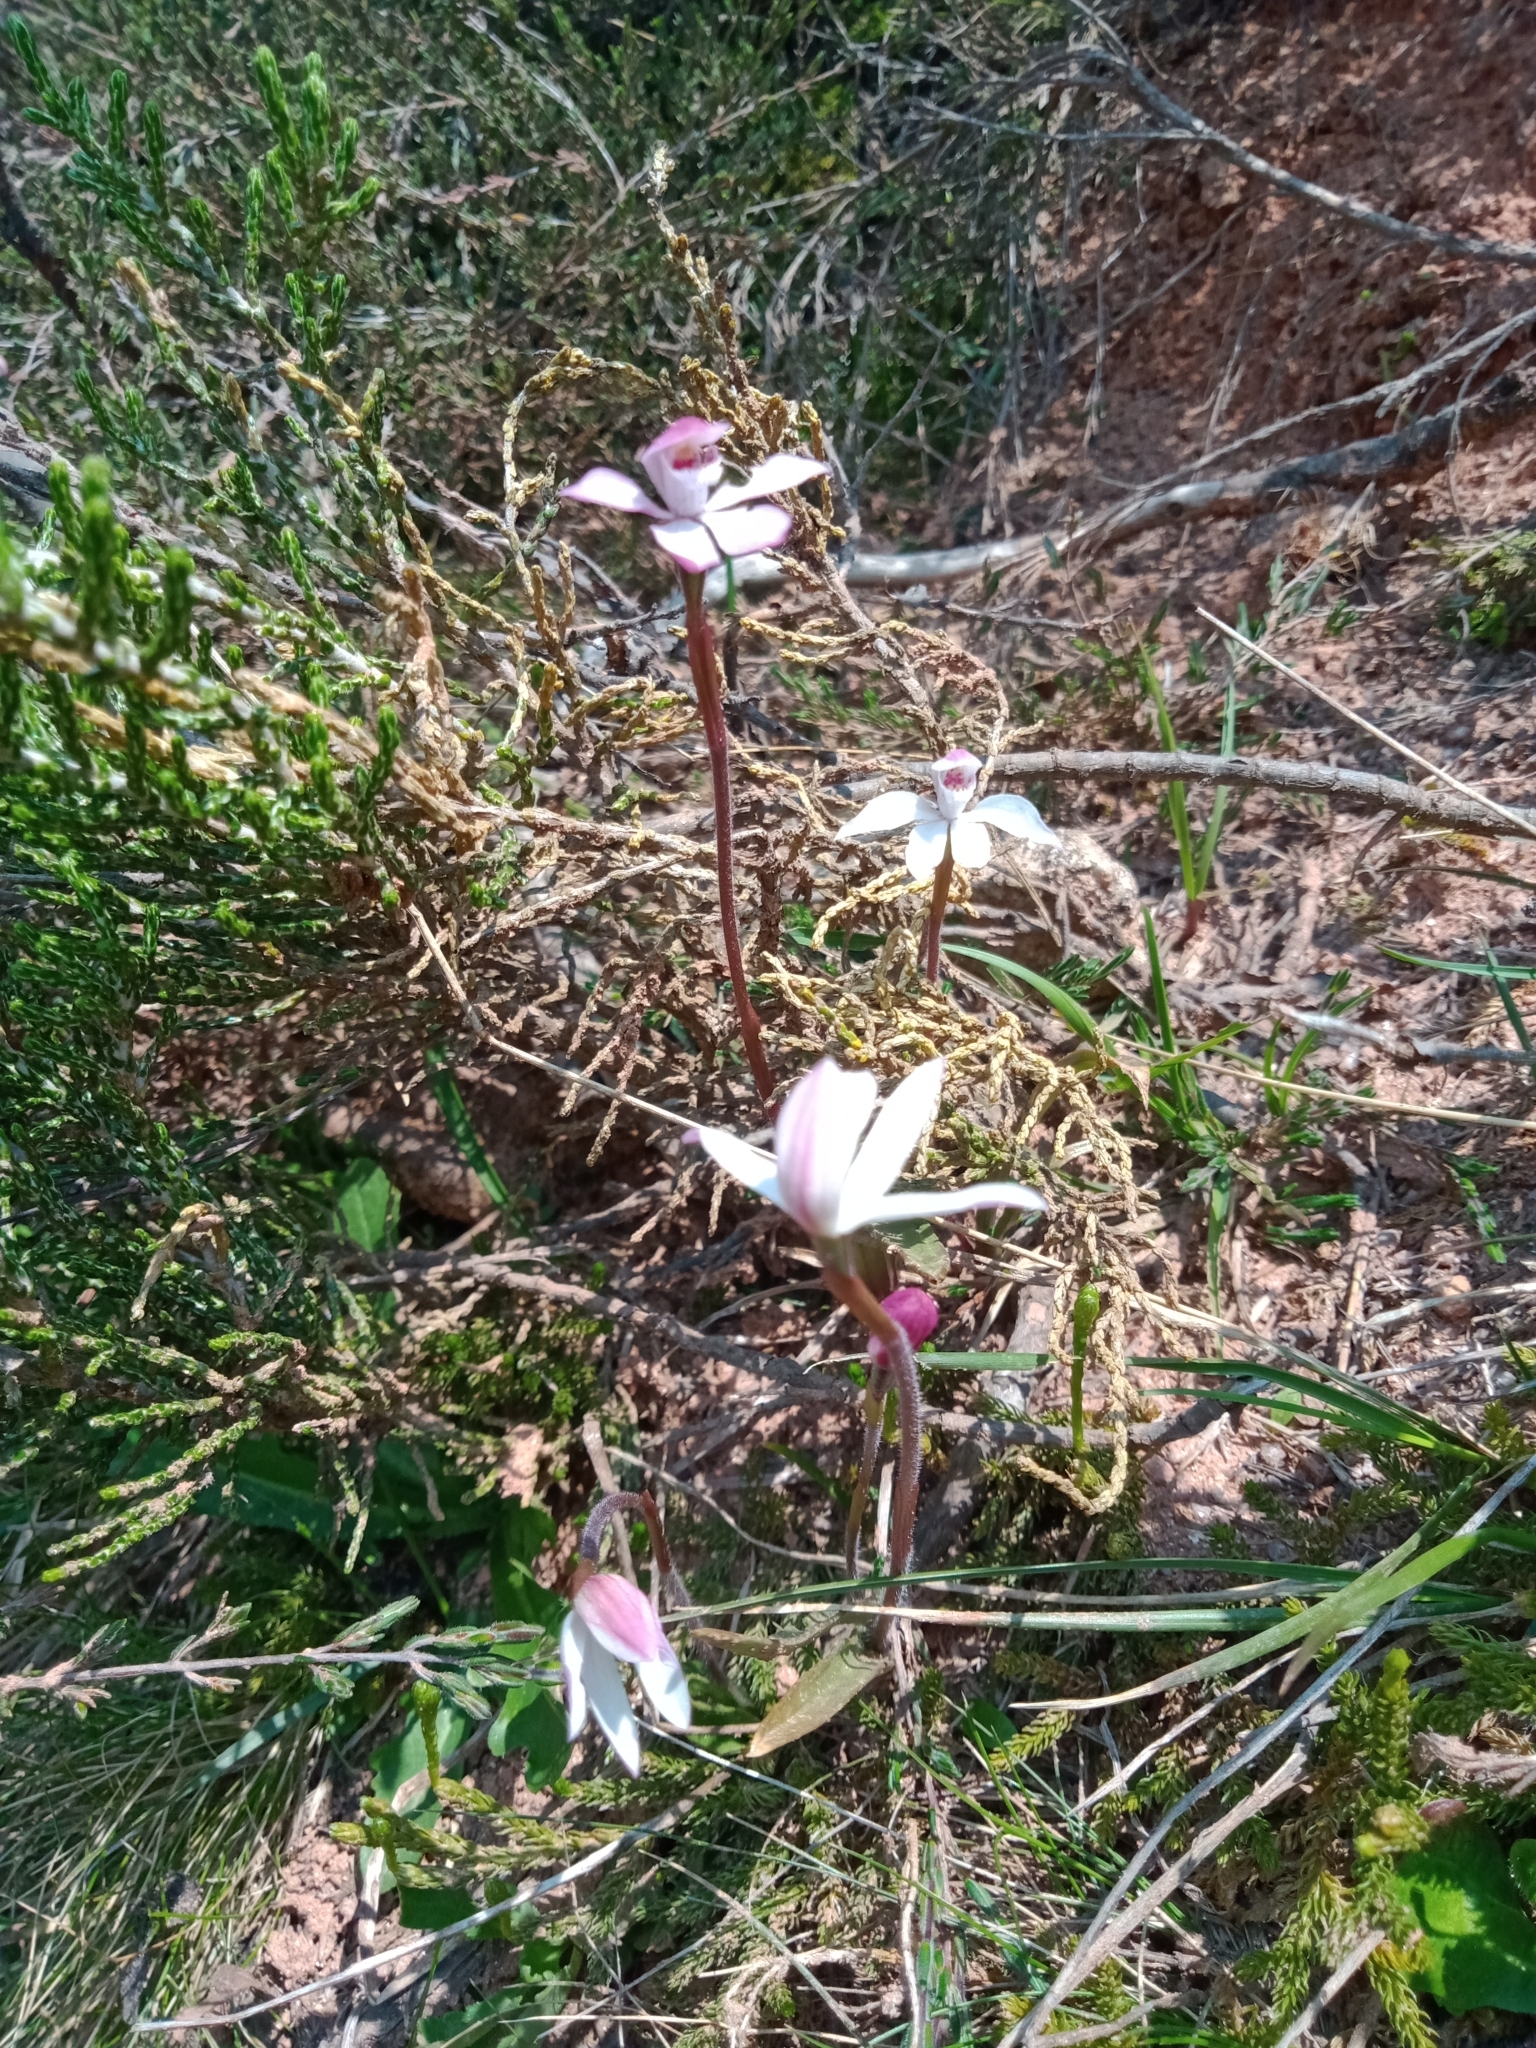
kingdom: Plantae
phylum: Tracheophyta
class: Liliopsida
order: Asparagales
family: Orchidaceae
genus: Caladenia
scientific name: Caladenia alpina
